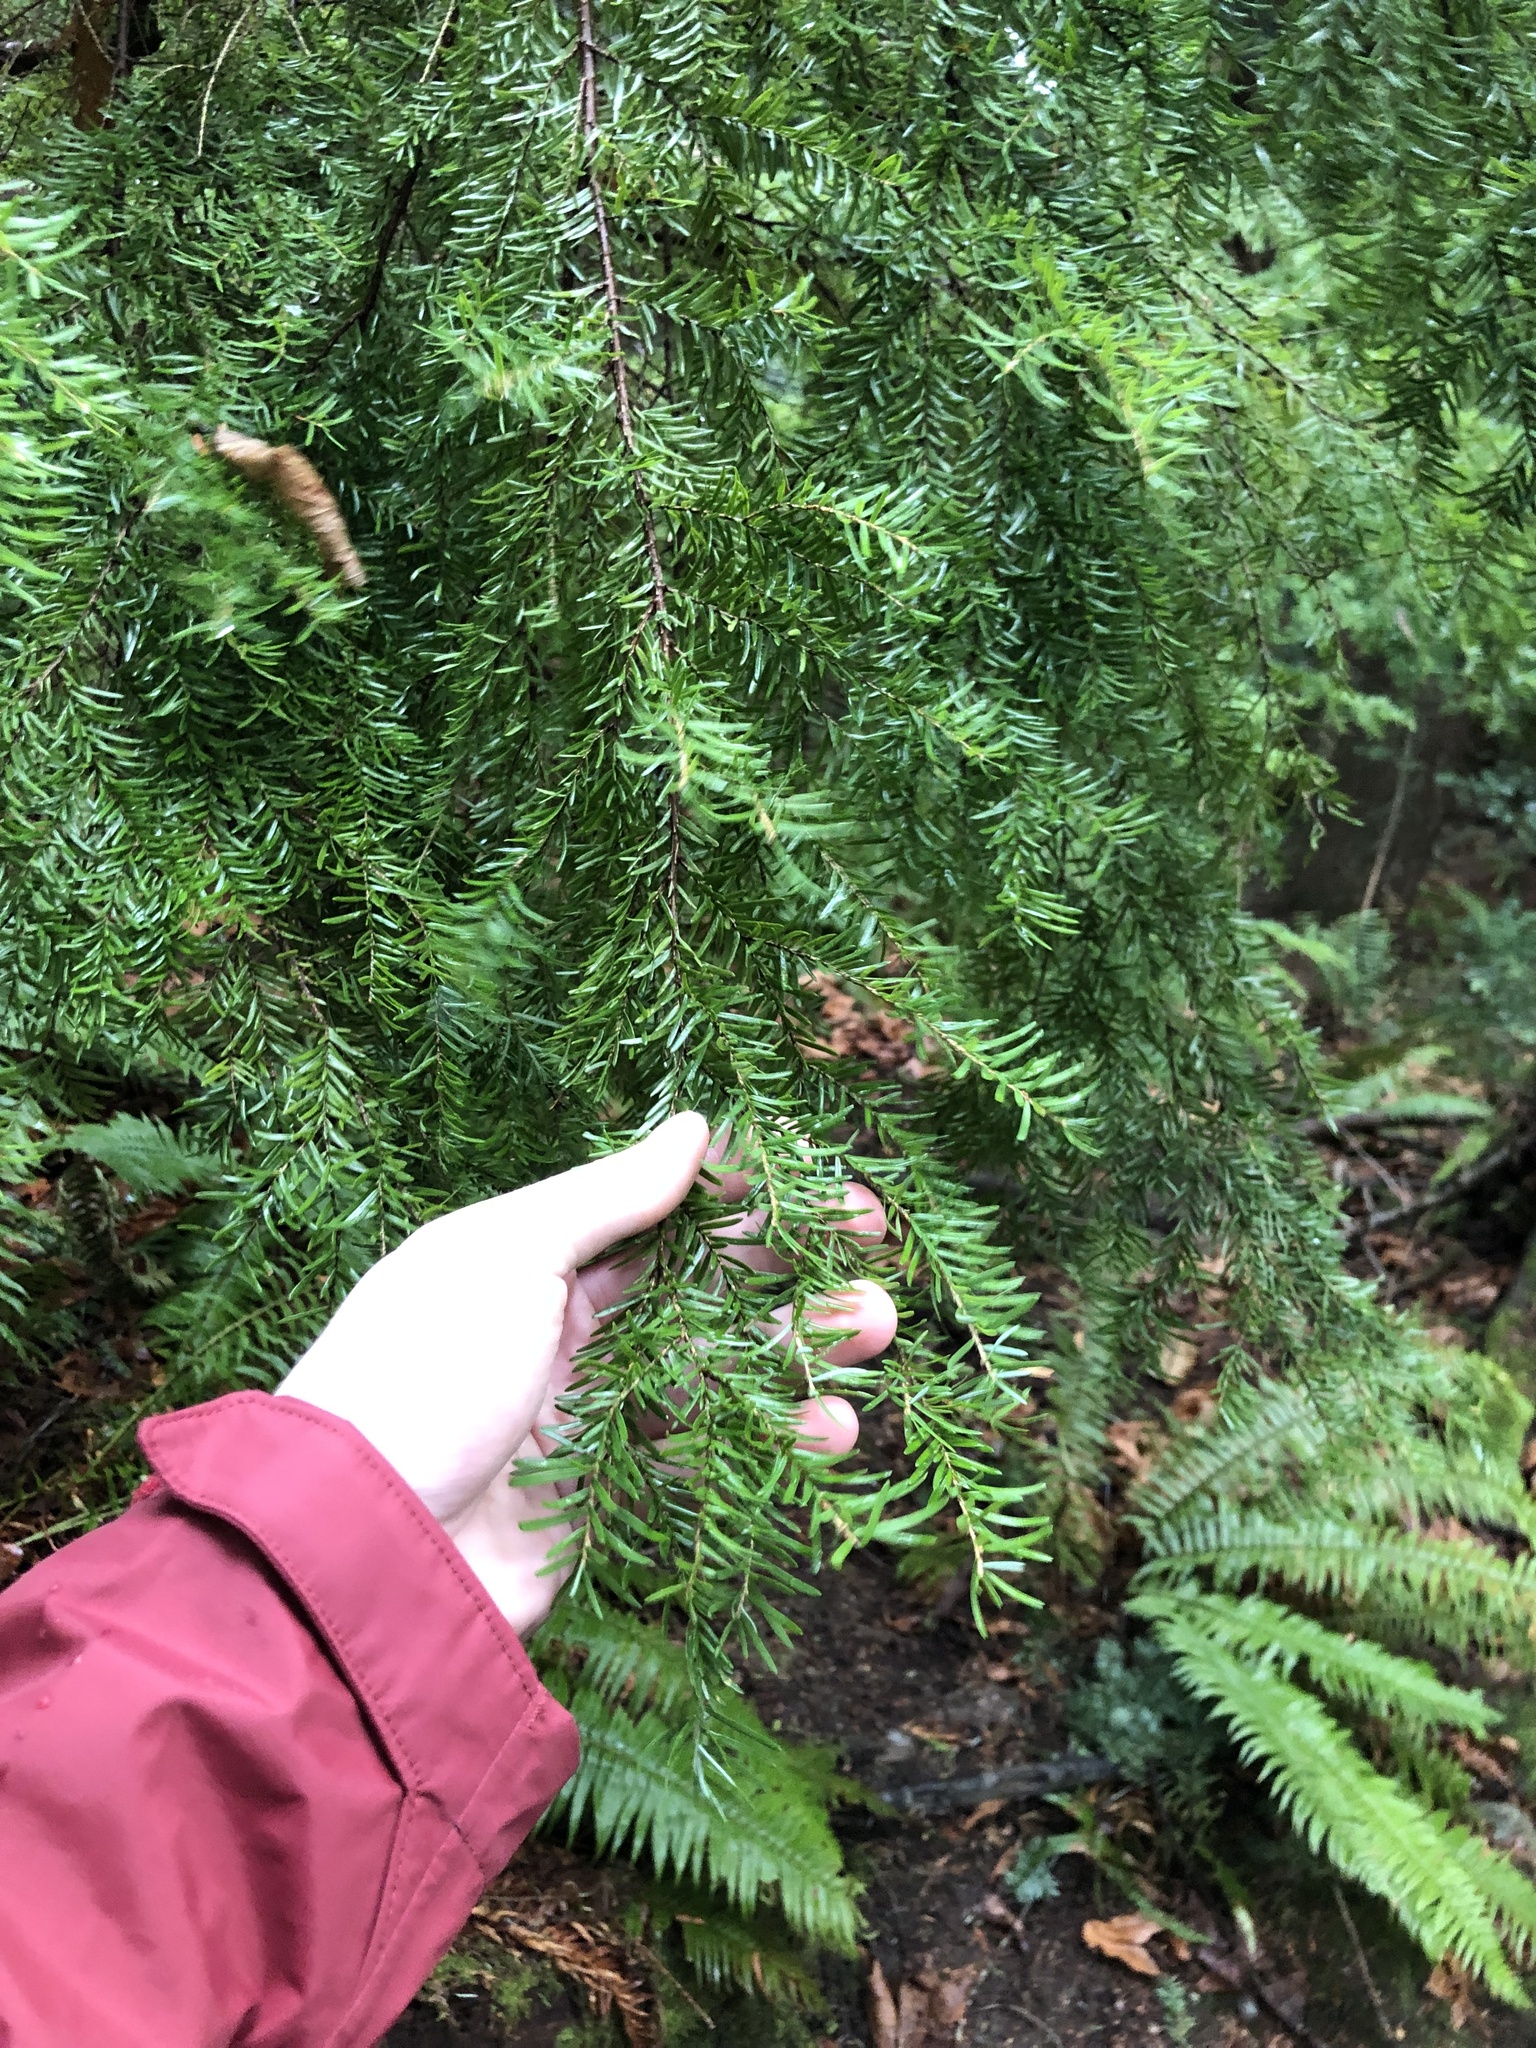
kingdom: Plantae
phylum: Tracheophyta
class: Pinopsida
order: Pinales
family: Pinaceae
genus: Tsuga
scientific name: Tsuga heterophylla
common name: Western hemlock
